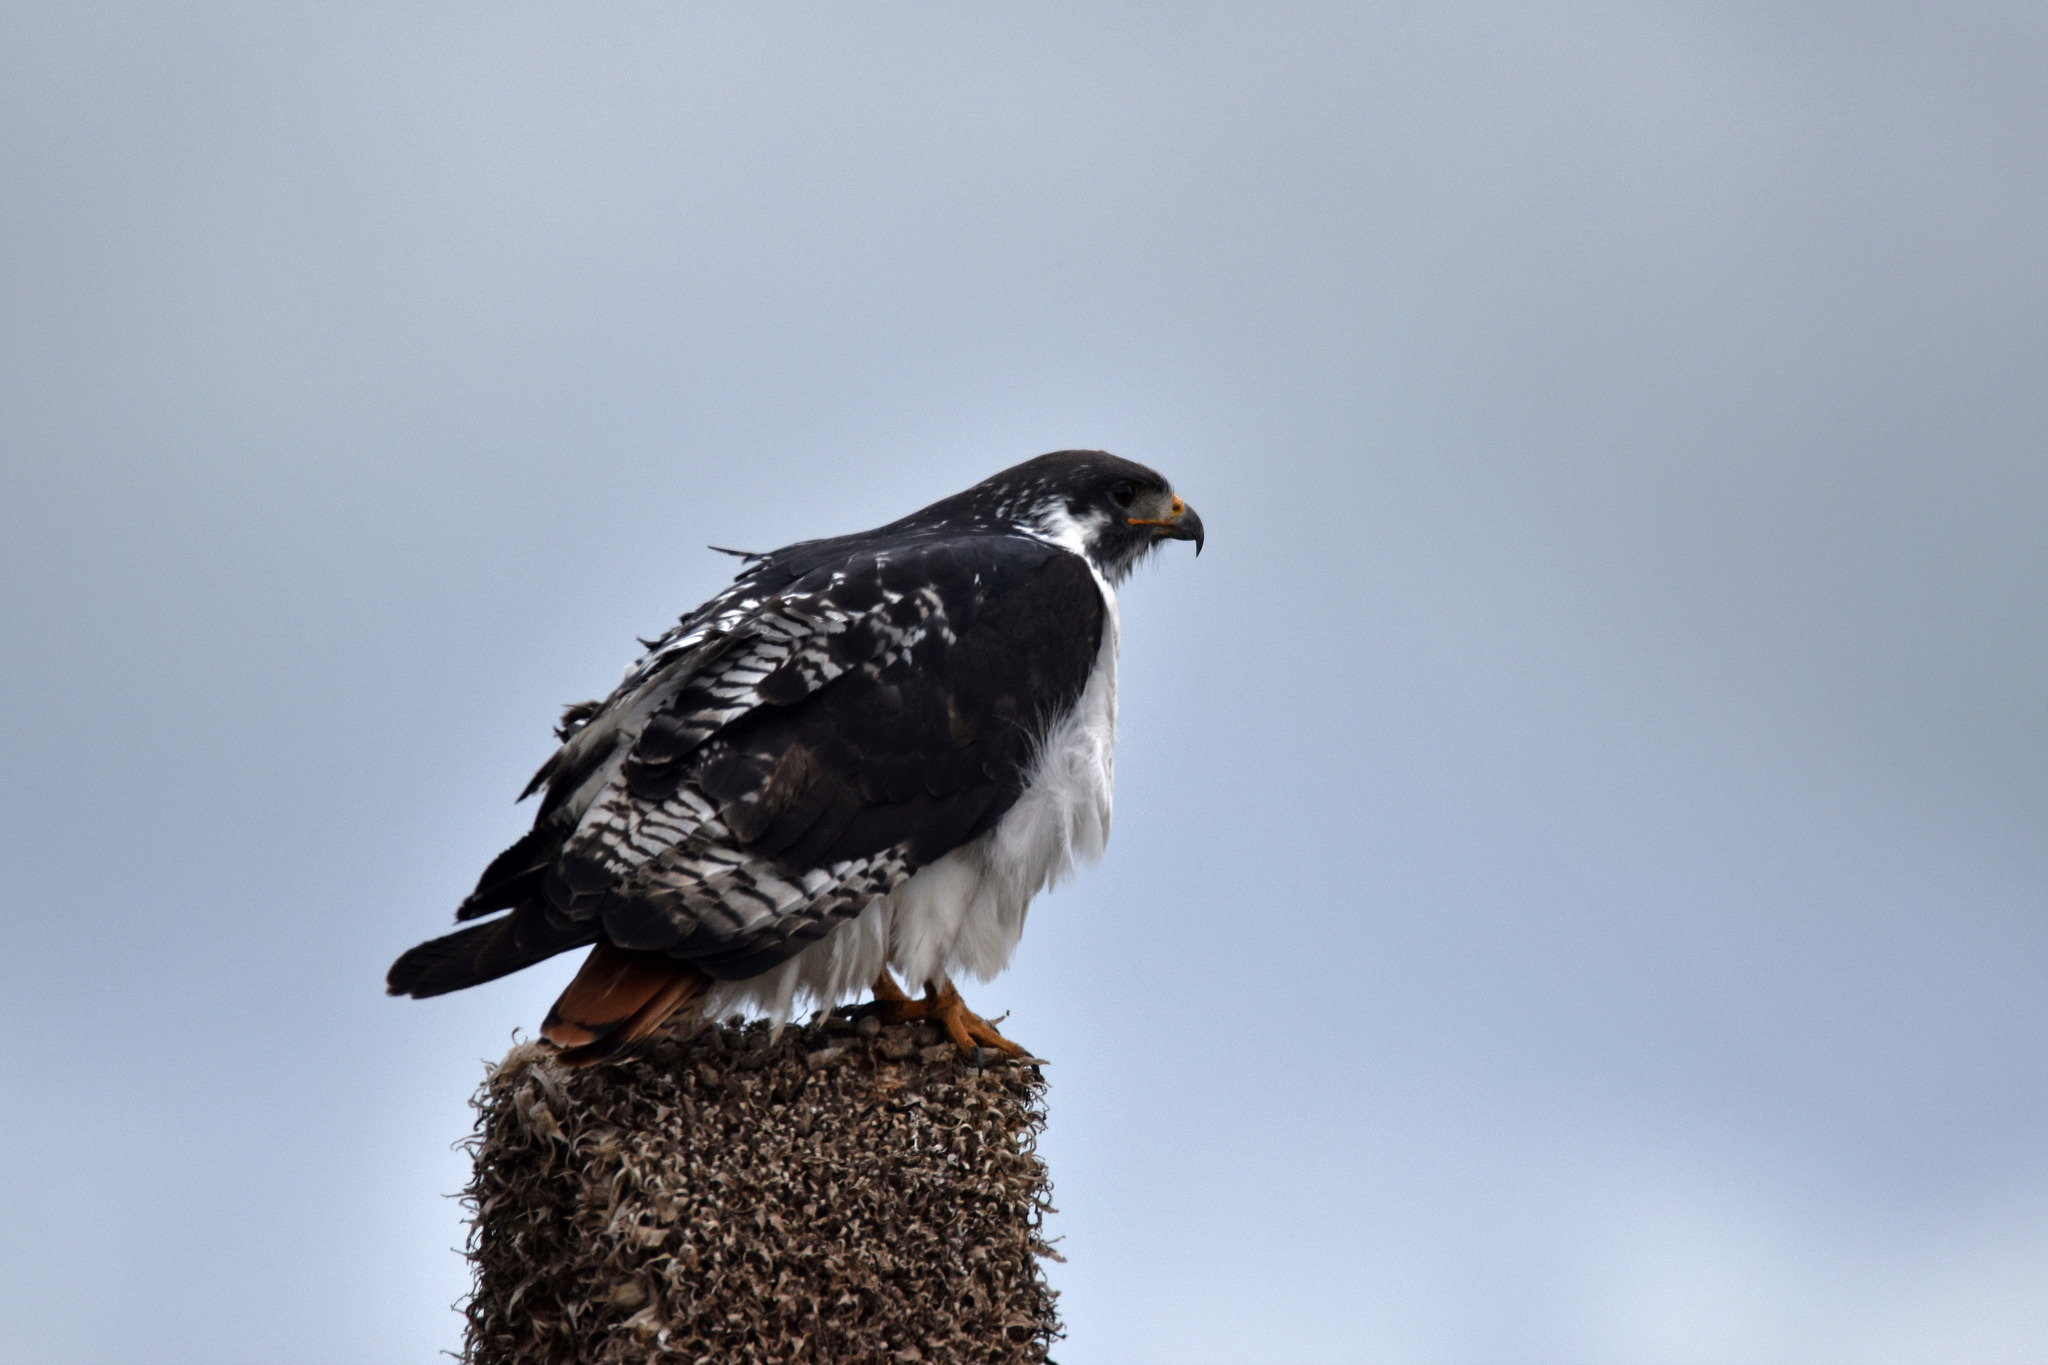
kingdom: Animalia
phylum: Chordata
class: Aves
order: Accipitriformes
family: Accipitridae
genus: Buteo
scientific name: Buteo augur
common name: Augur buzzard
